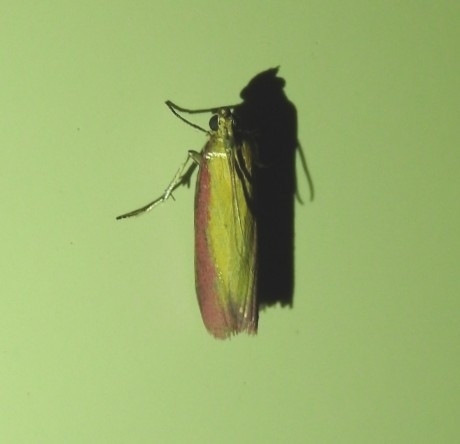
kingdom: Animalia
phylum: Arthropoda
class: Insecta
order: Lepidoptera
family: Pyralidae
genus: Oncocera
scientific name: Oncocera semirubella
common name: Rosy-striped knot-horn
